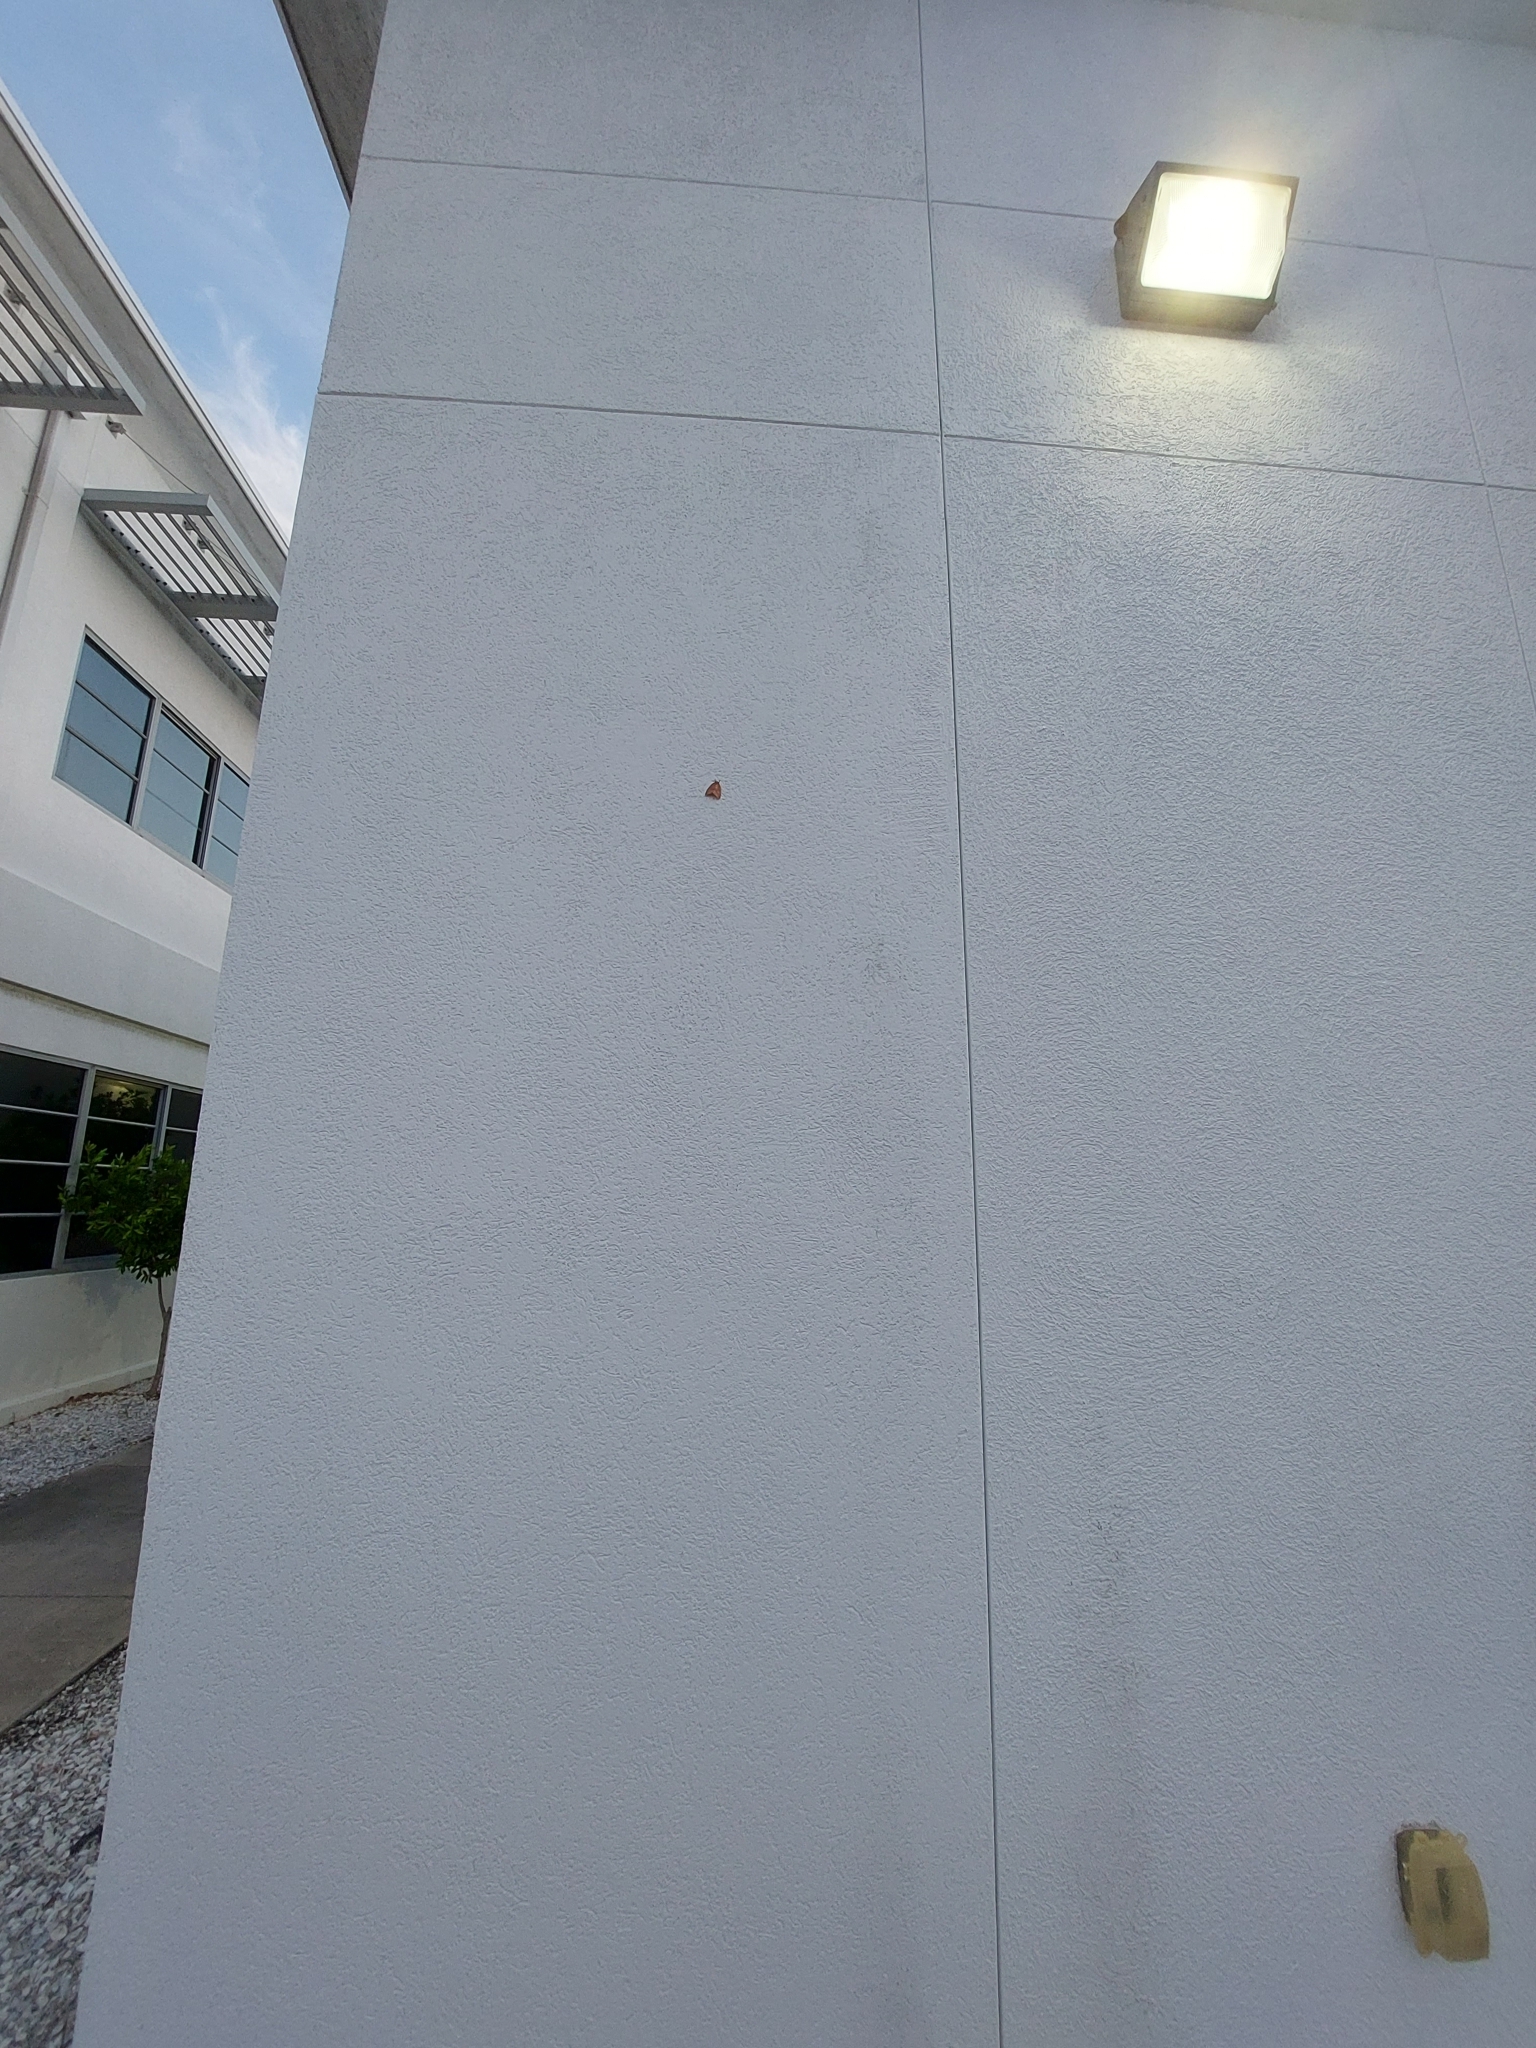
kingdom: Animalia
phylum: Arthropoda
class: Insecta
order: Lepidoptera
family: Saturniidae
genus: Automeris
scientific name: Automeris io
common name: Io moth
